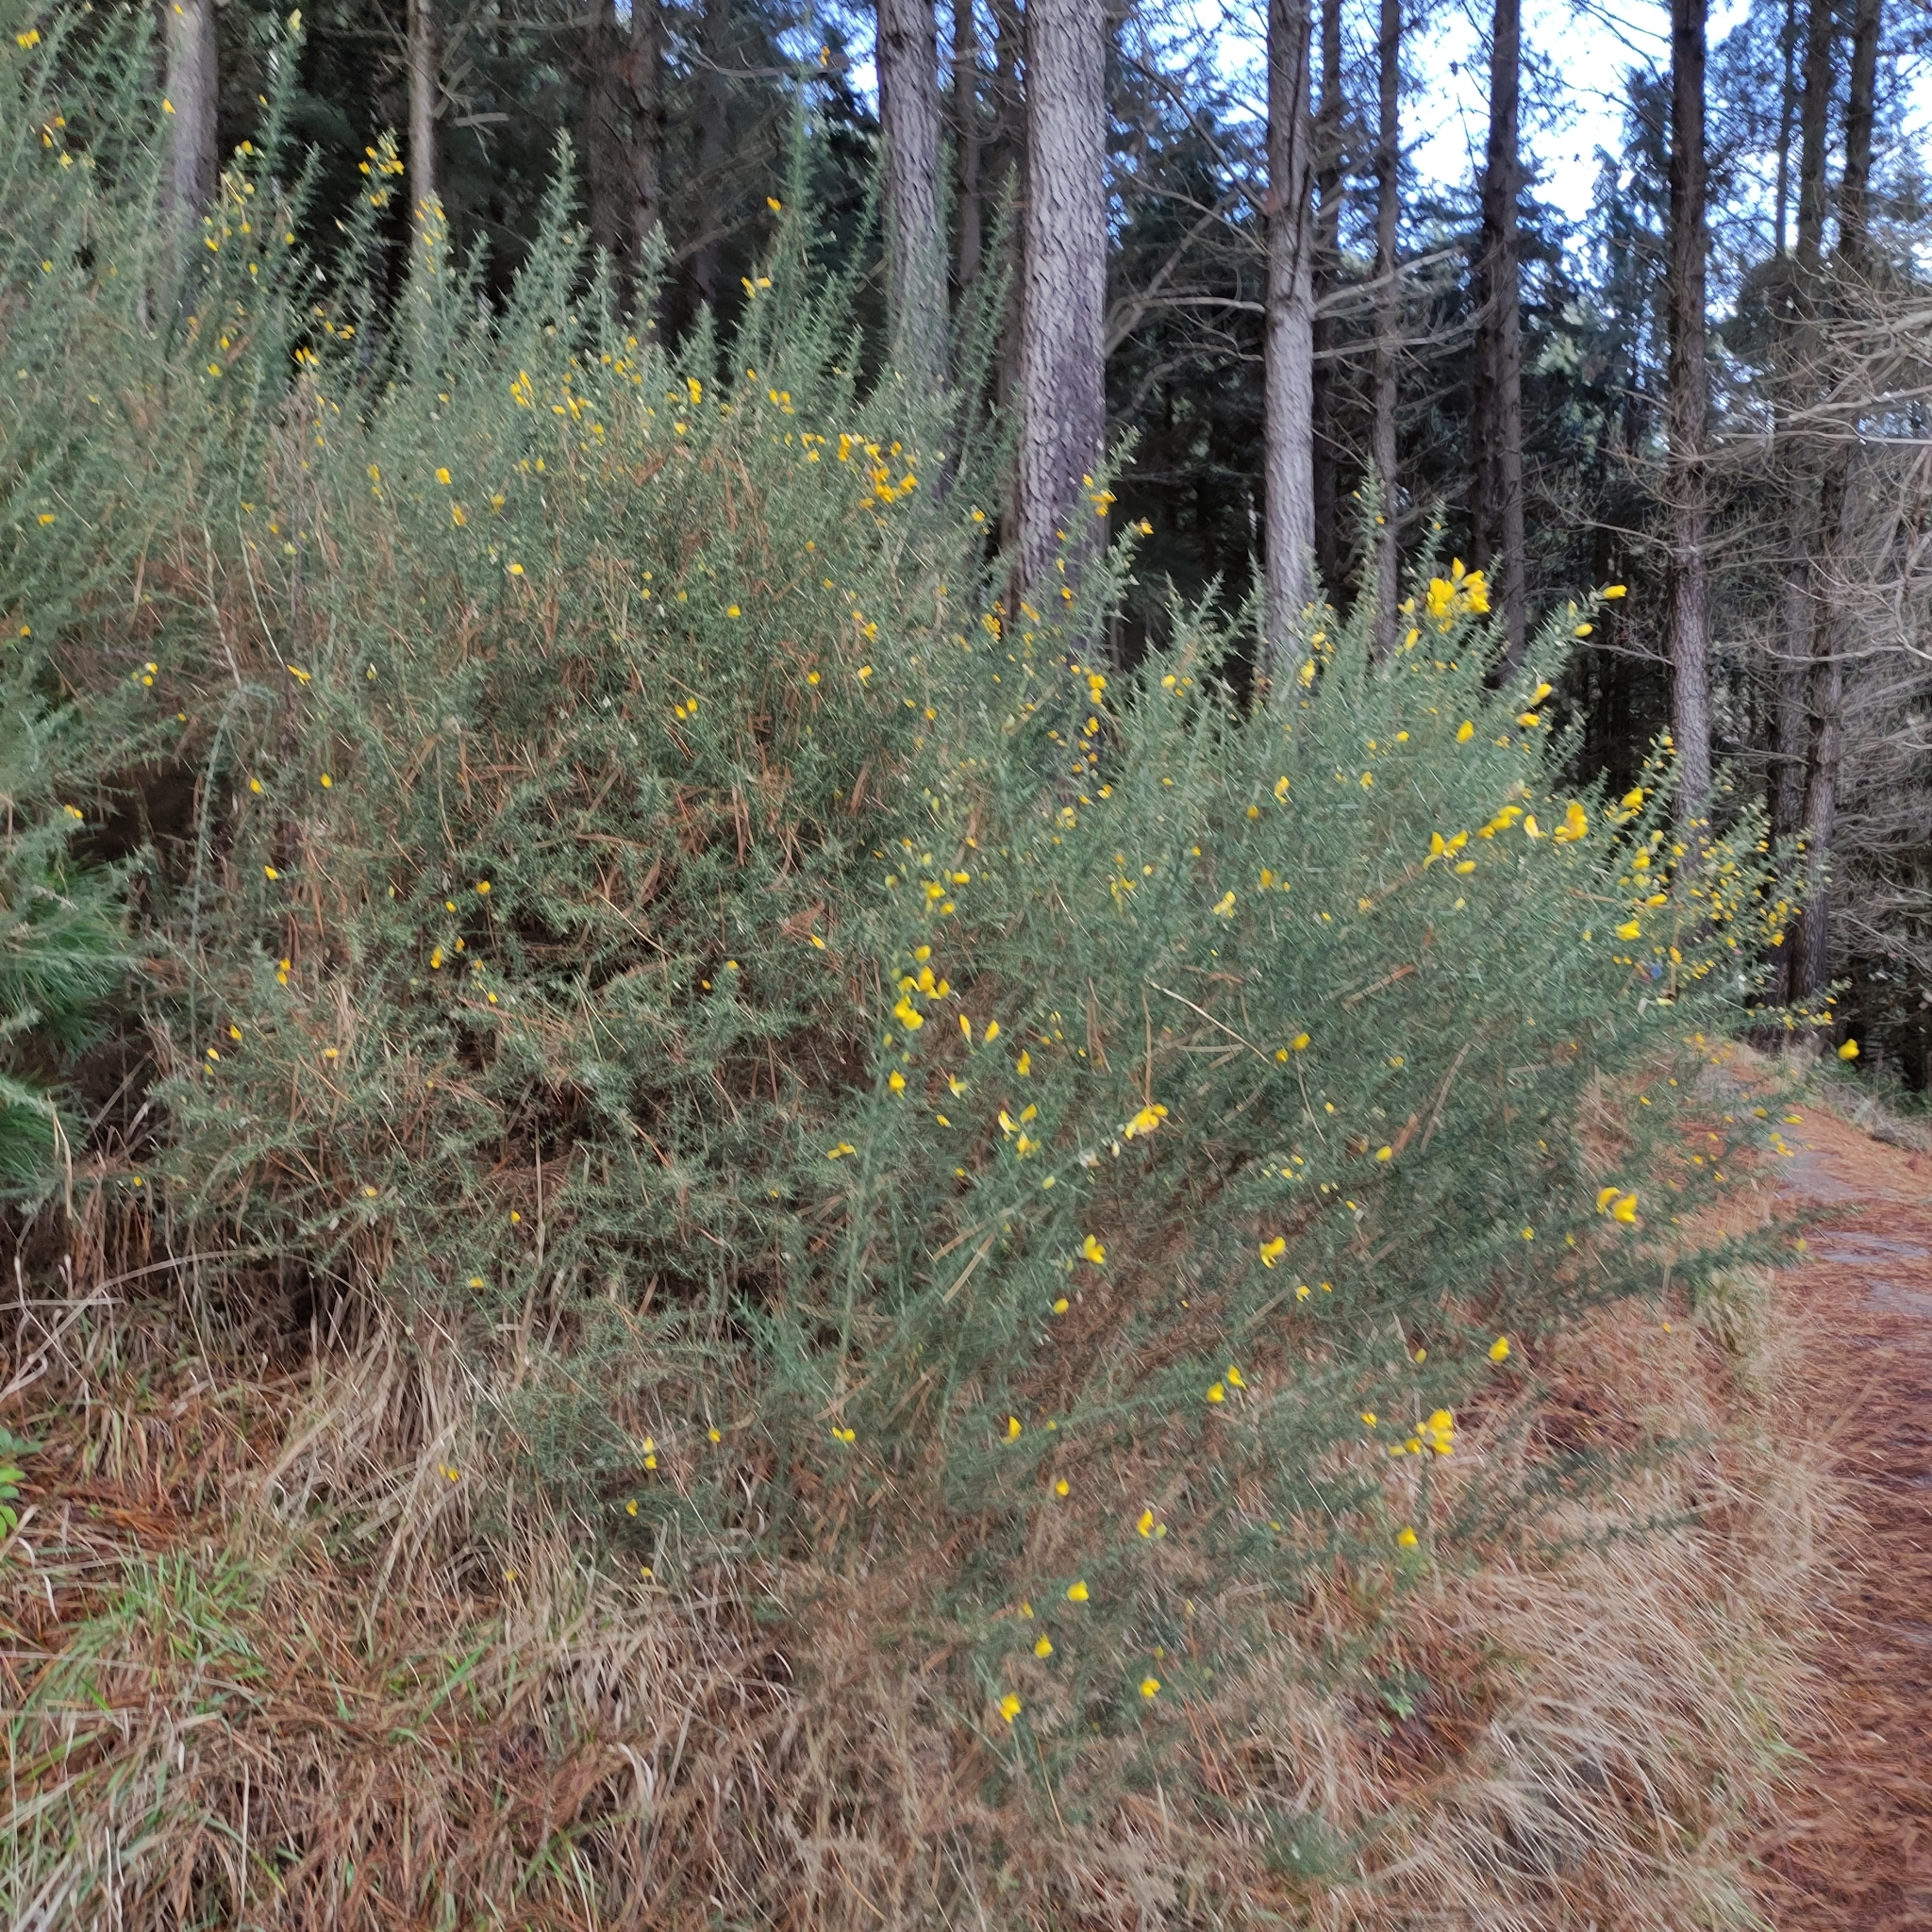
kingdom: Plantae
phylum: Tracheophyta
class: Magnoliopsida
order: Fabales
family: Fabaceae
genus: Ulex
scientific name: Ulex europaeus
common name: Common gorse
